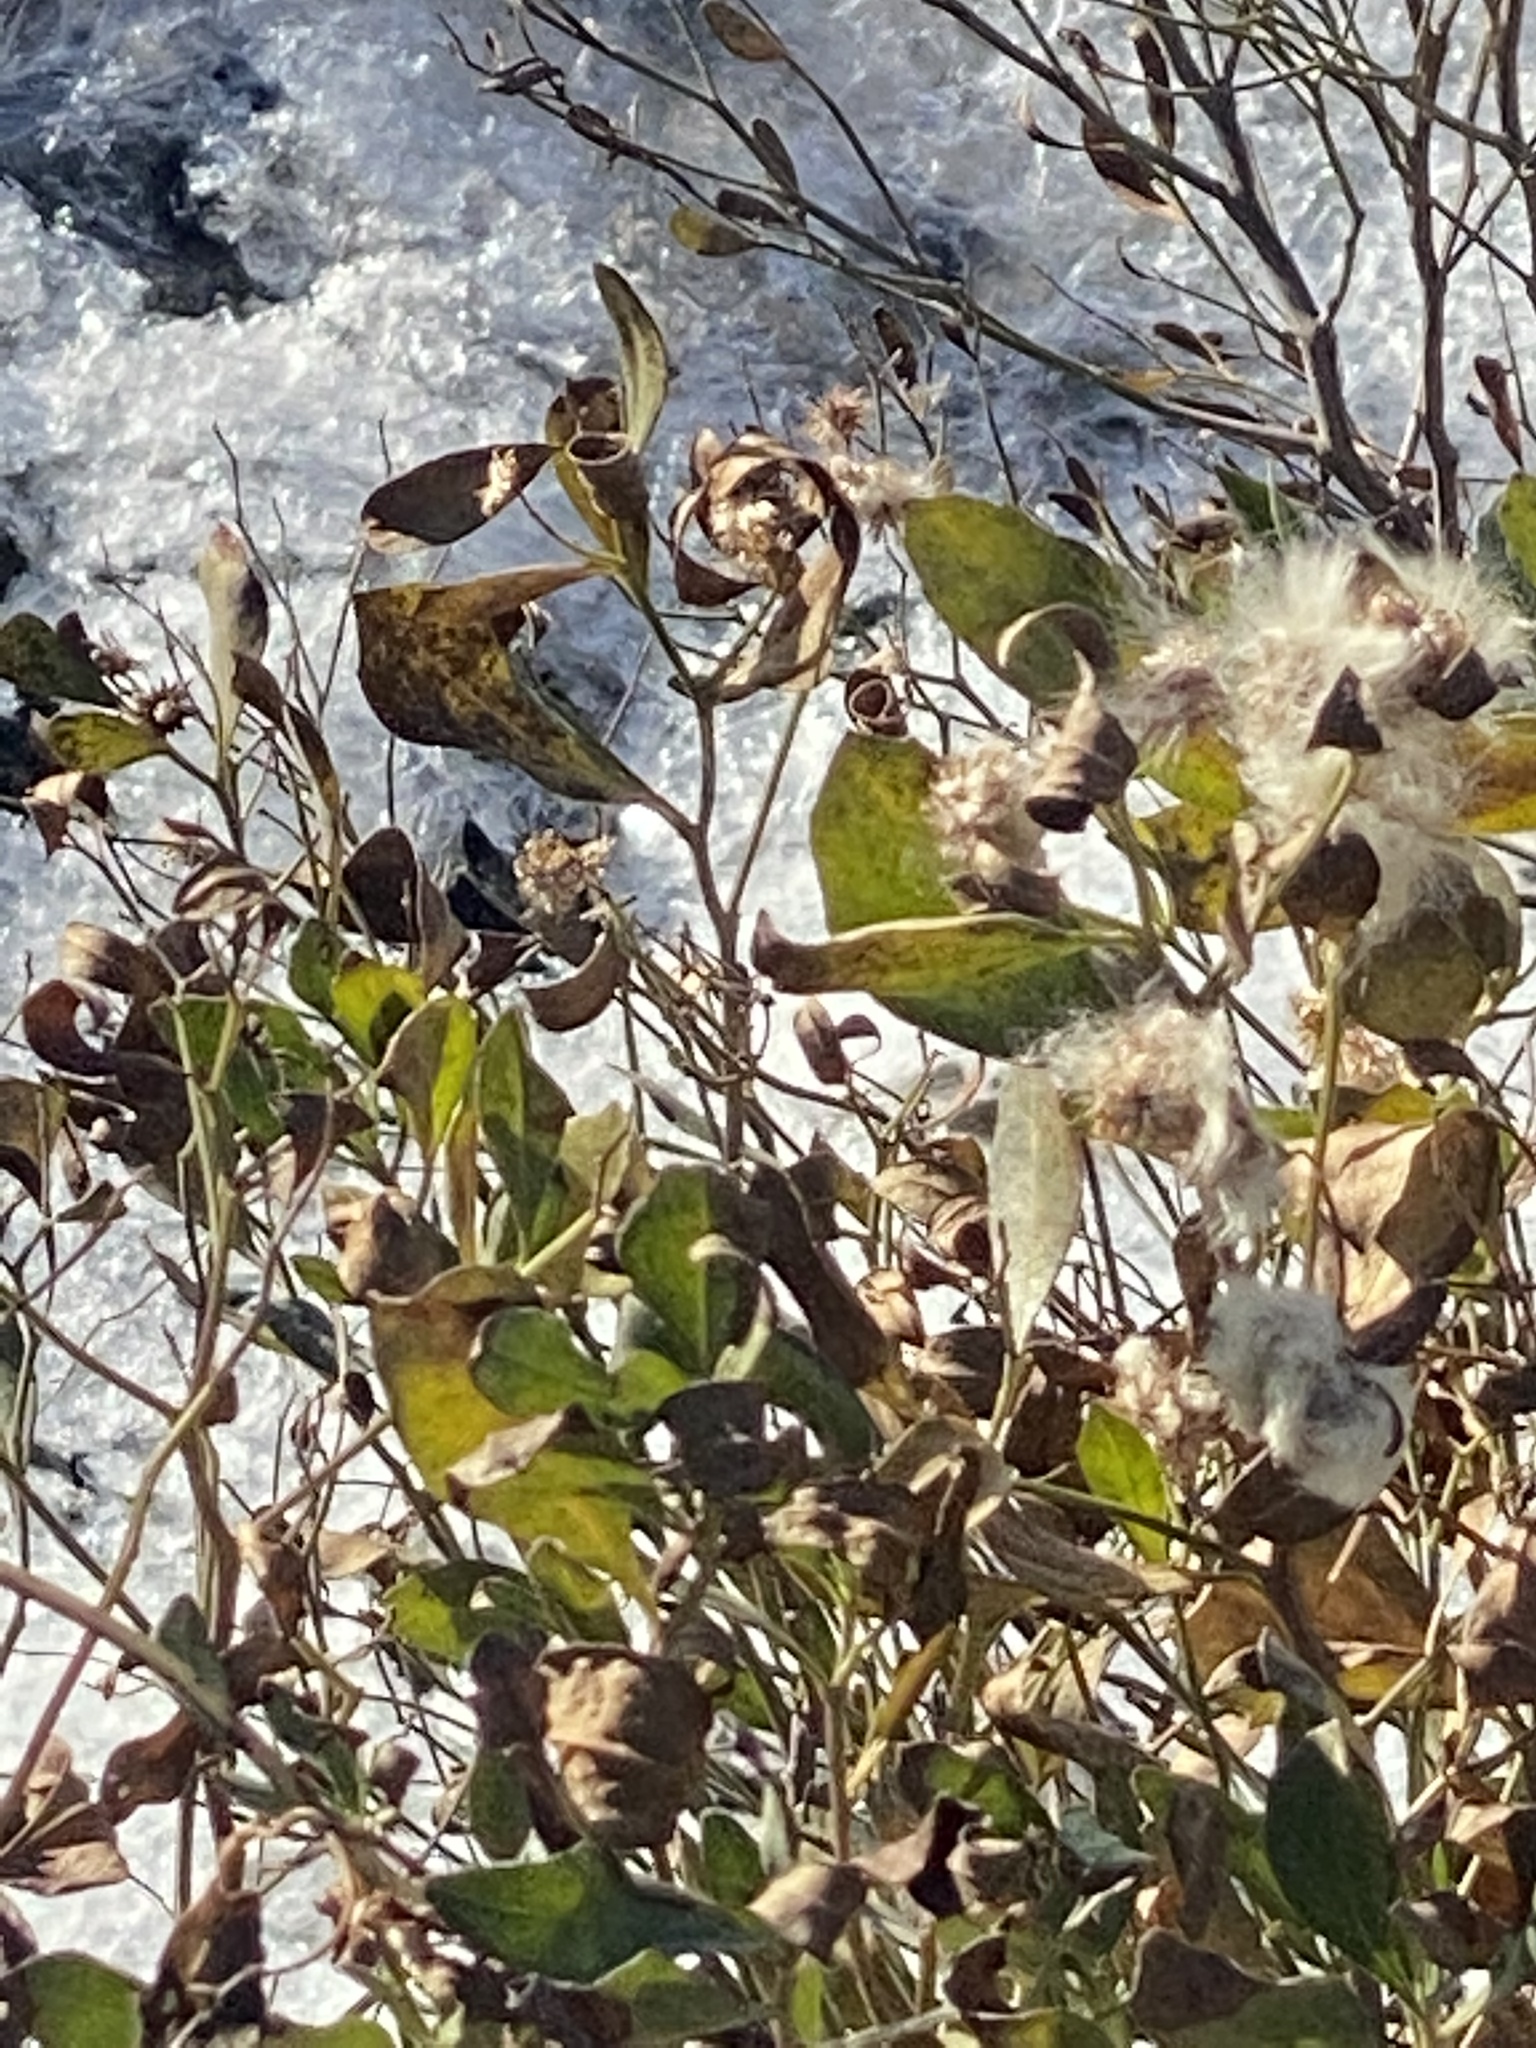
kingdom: Plantae
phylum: Tracheophyta
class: Magnoliopsida
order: Asterales
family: Asteraceae
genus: Baccharis
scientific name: Baccharis halimifolia
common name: Eastern baccharis
